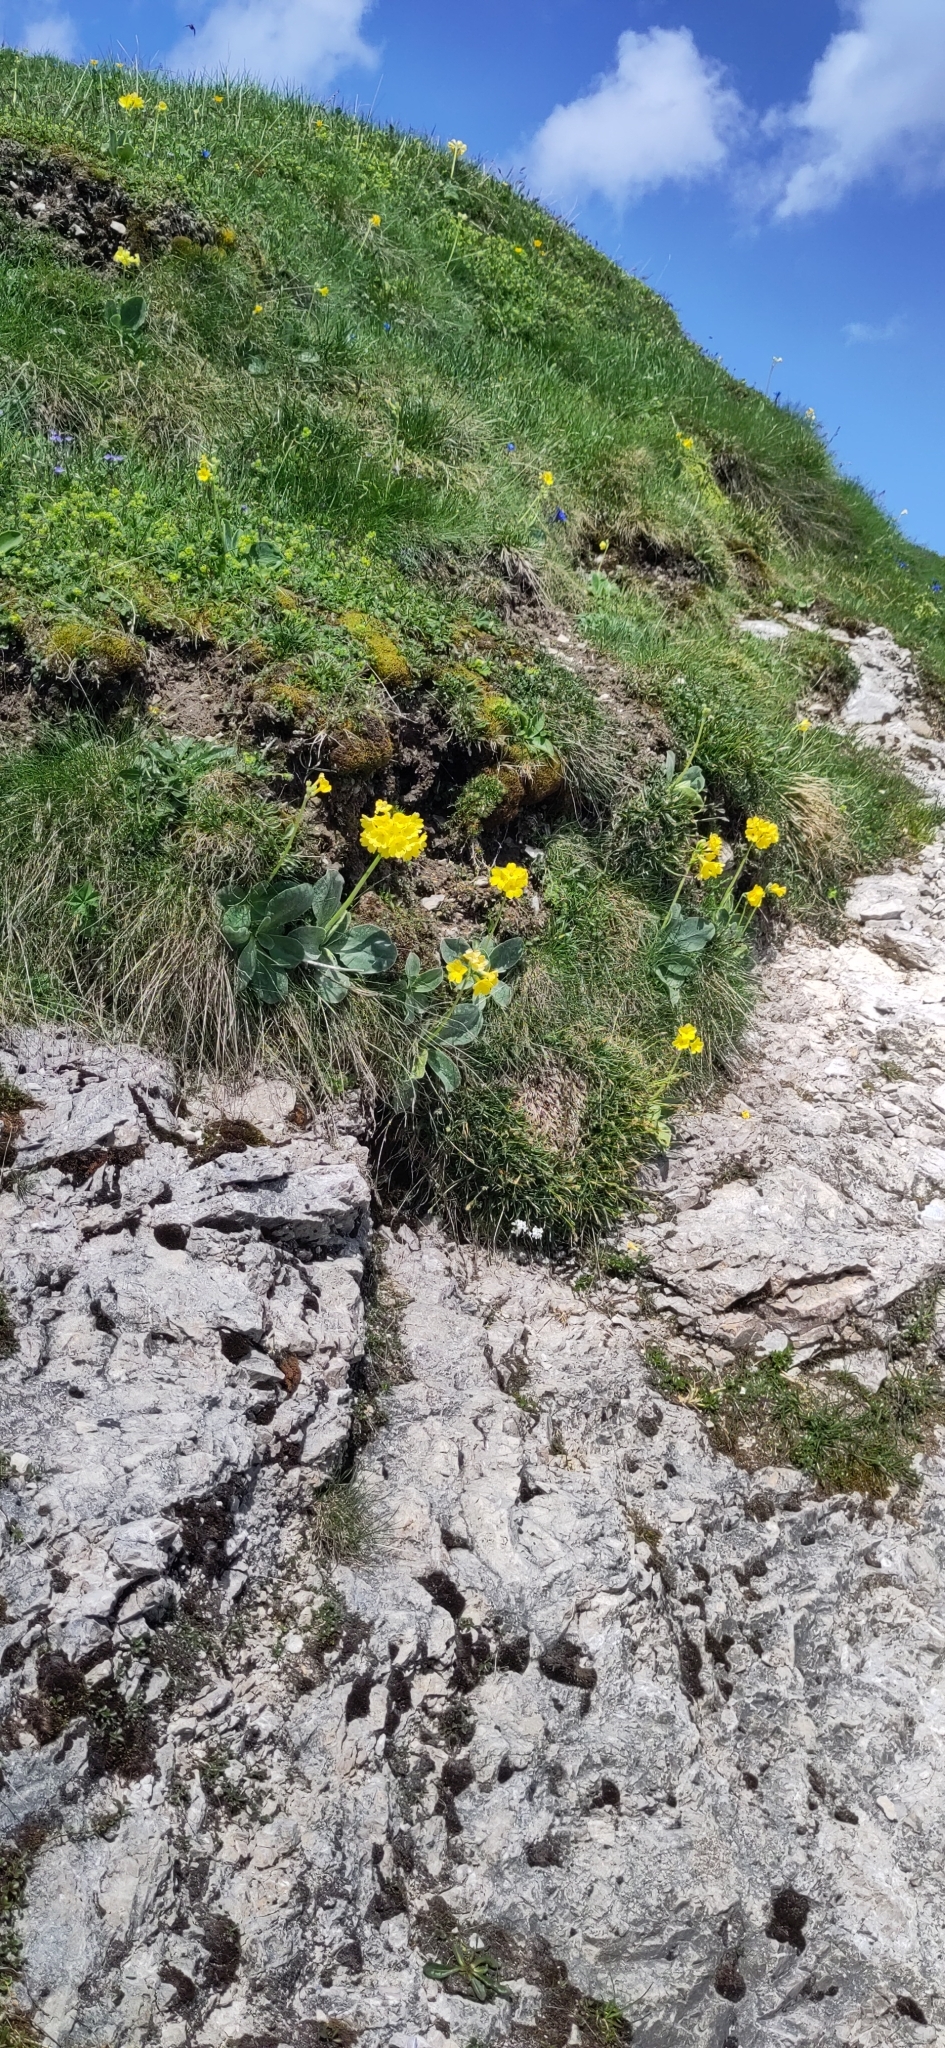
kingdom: Plantae
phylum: Tracheophyta
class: Magnoliopsida
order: Ericales
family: Primulaceae
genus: Primula
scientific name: Primula auricula
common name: Auricula
